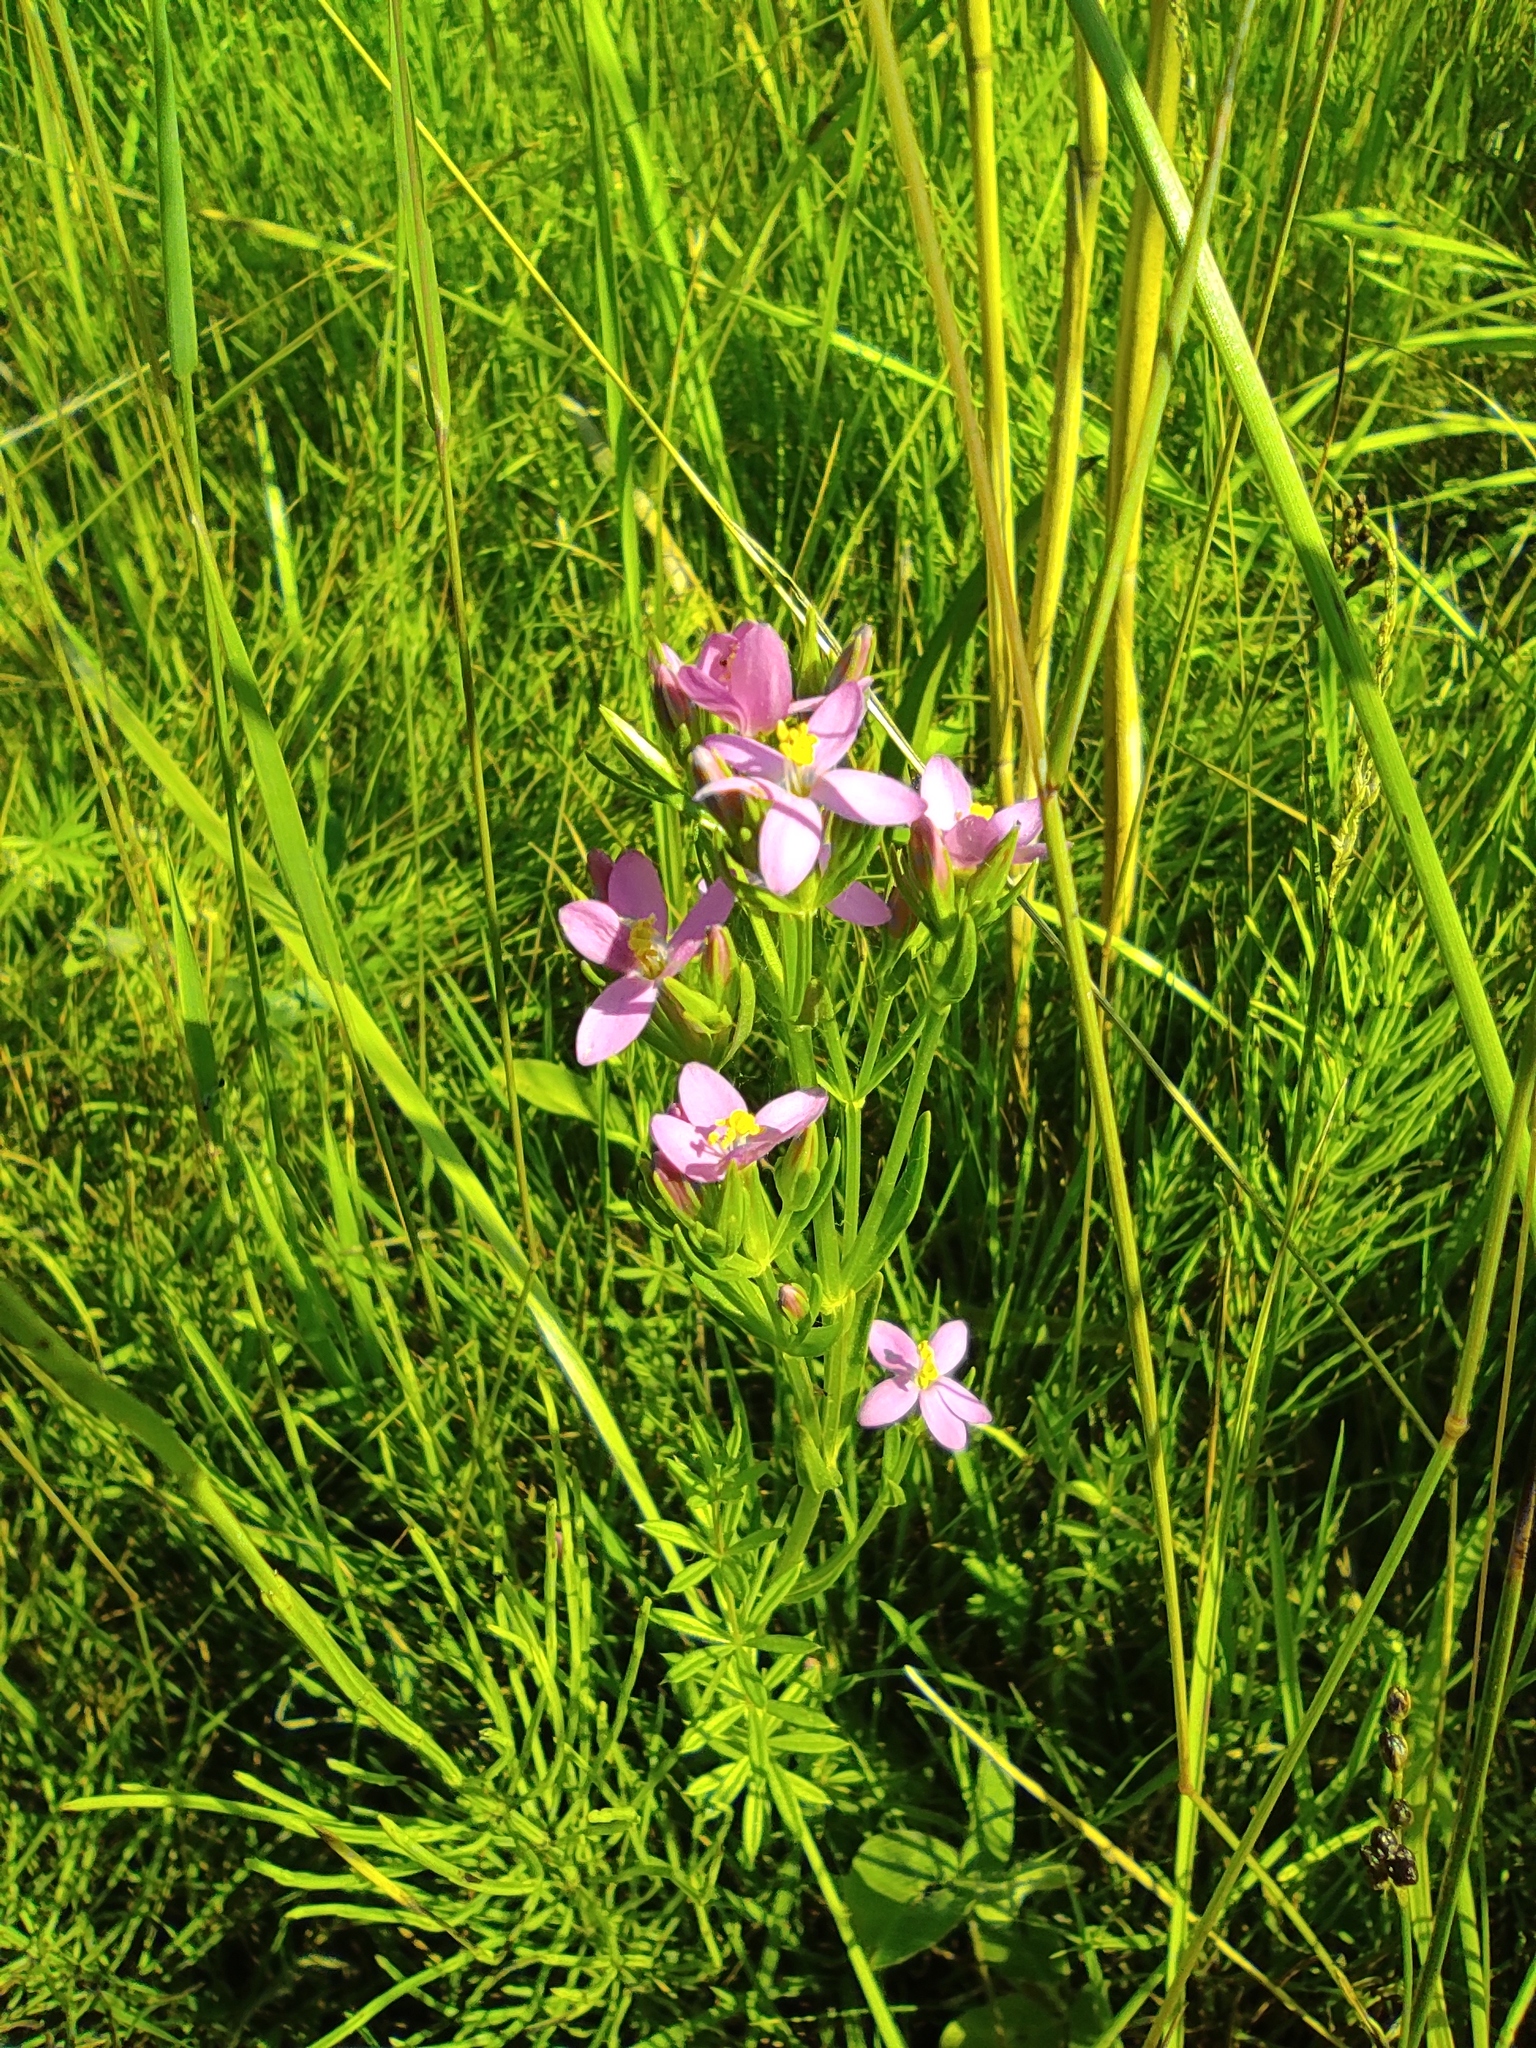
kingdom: Plantae
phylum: Tracheophyta
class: Magnoliopsida
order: Gentianales
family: Gentianaceae
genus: Centaurium
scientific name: Centaurium pulchellum
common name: Lesser centaury
